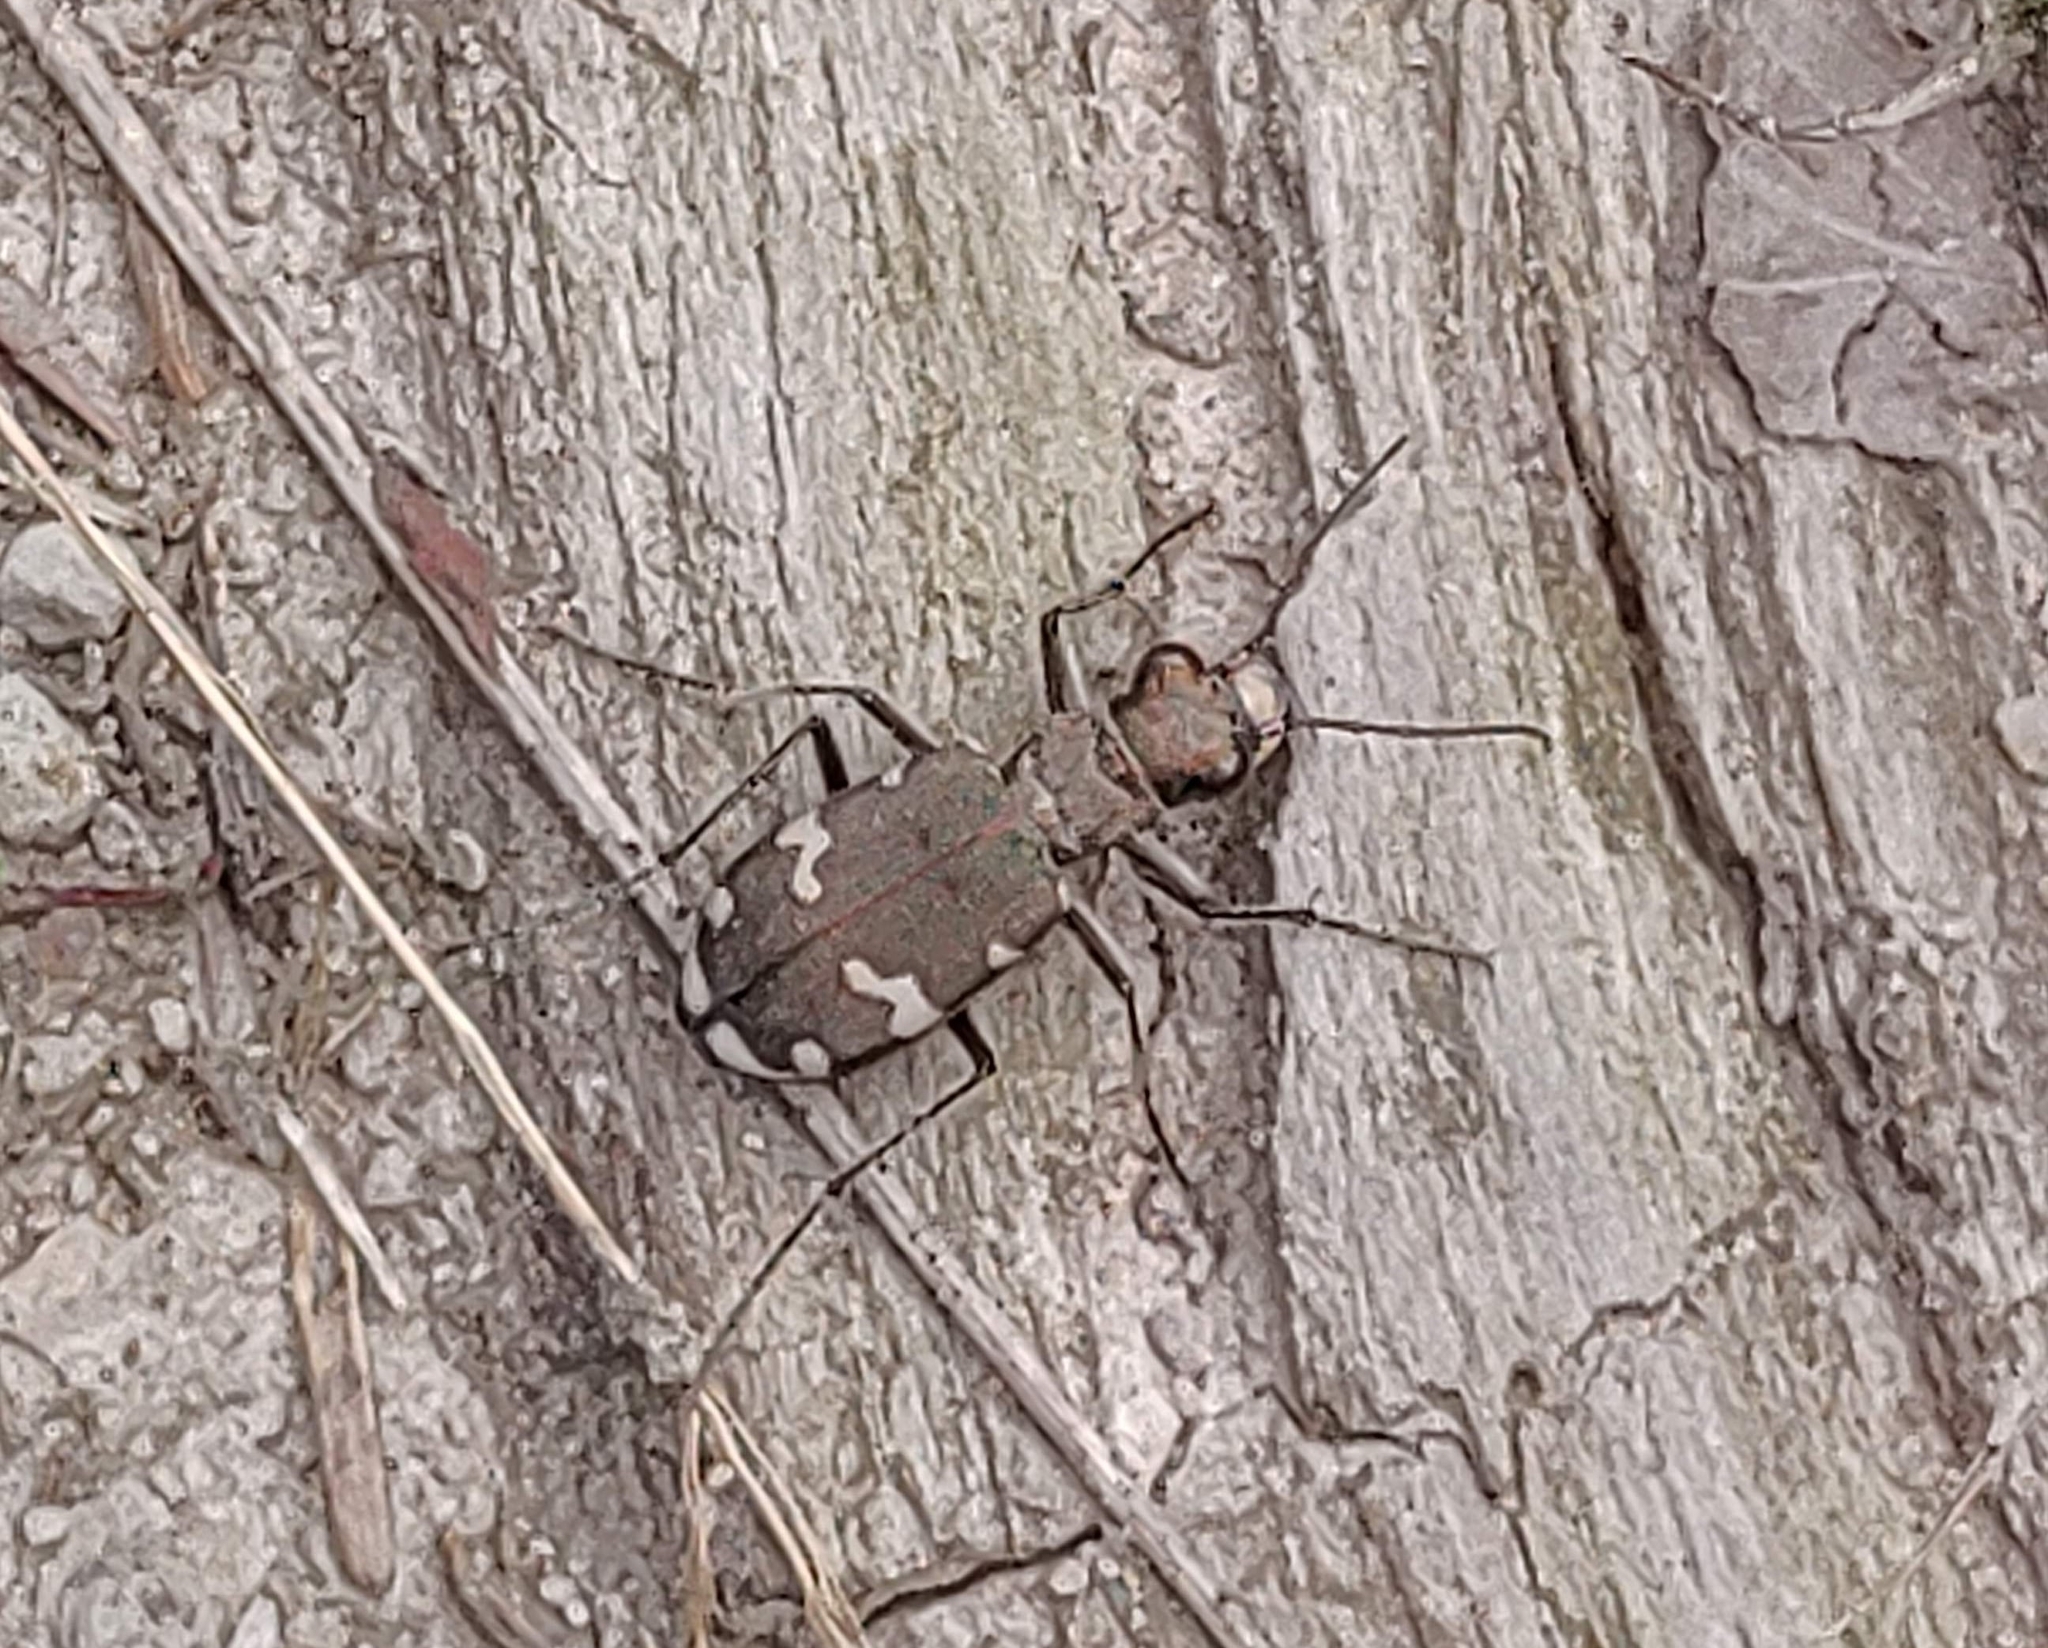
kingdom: Animalia
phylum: Arthropoda
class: Insecta
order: Coleoptera
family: Carabidae
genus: Cicindela
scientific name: Cicindela sylvicola
